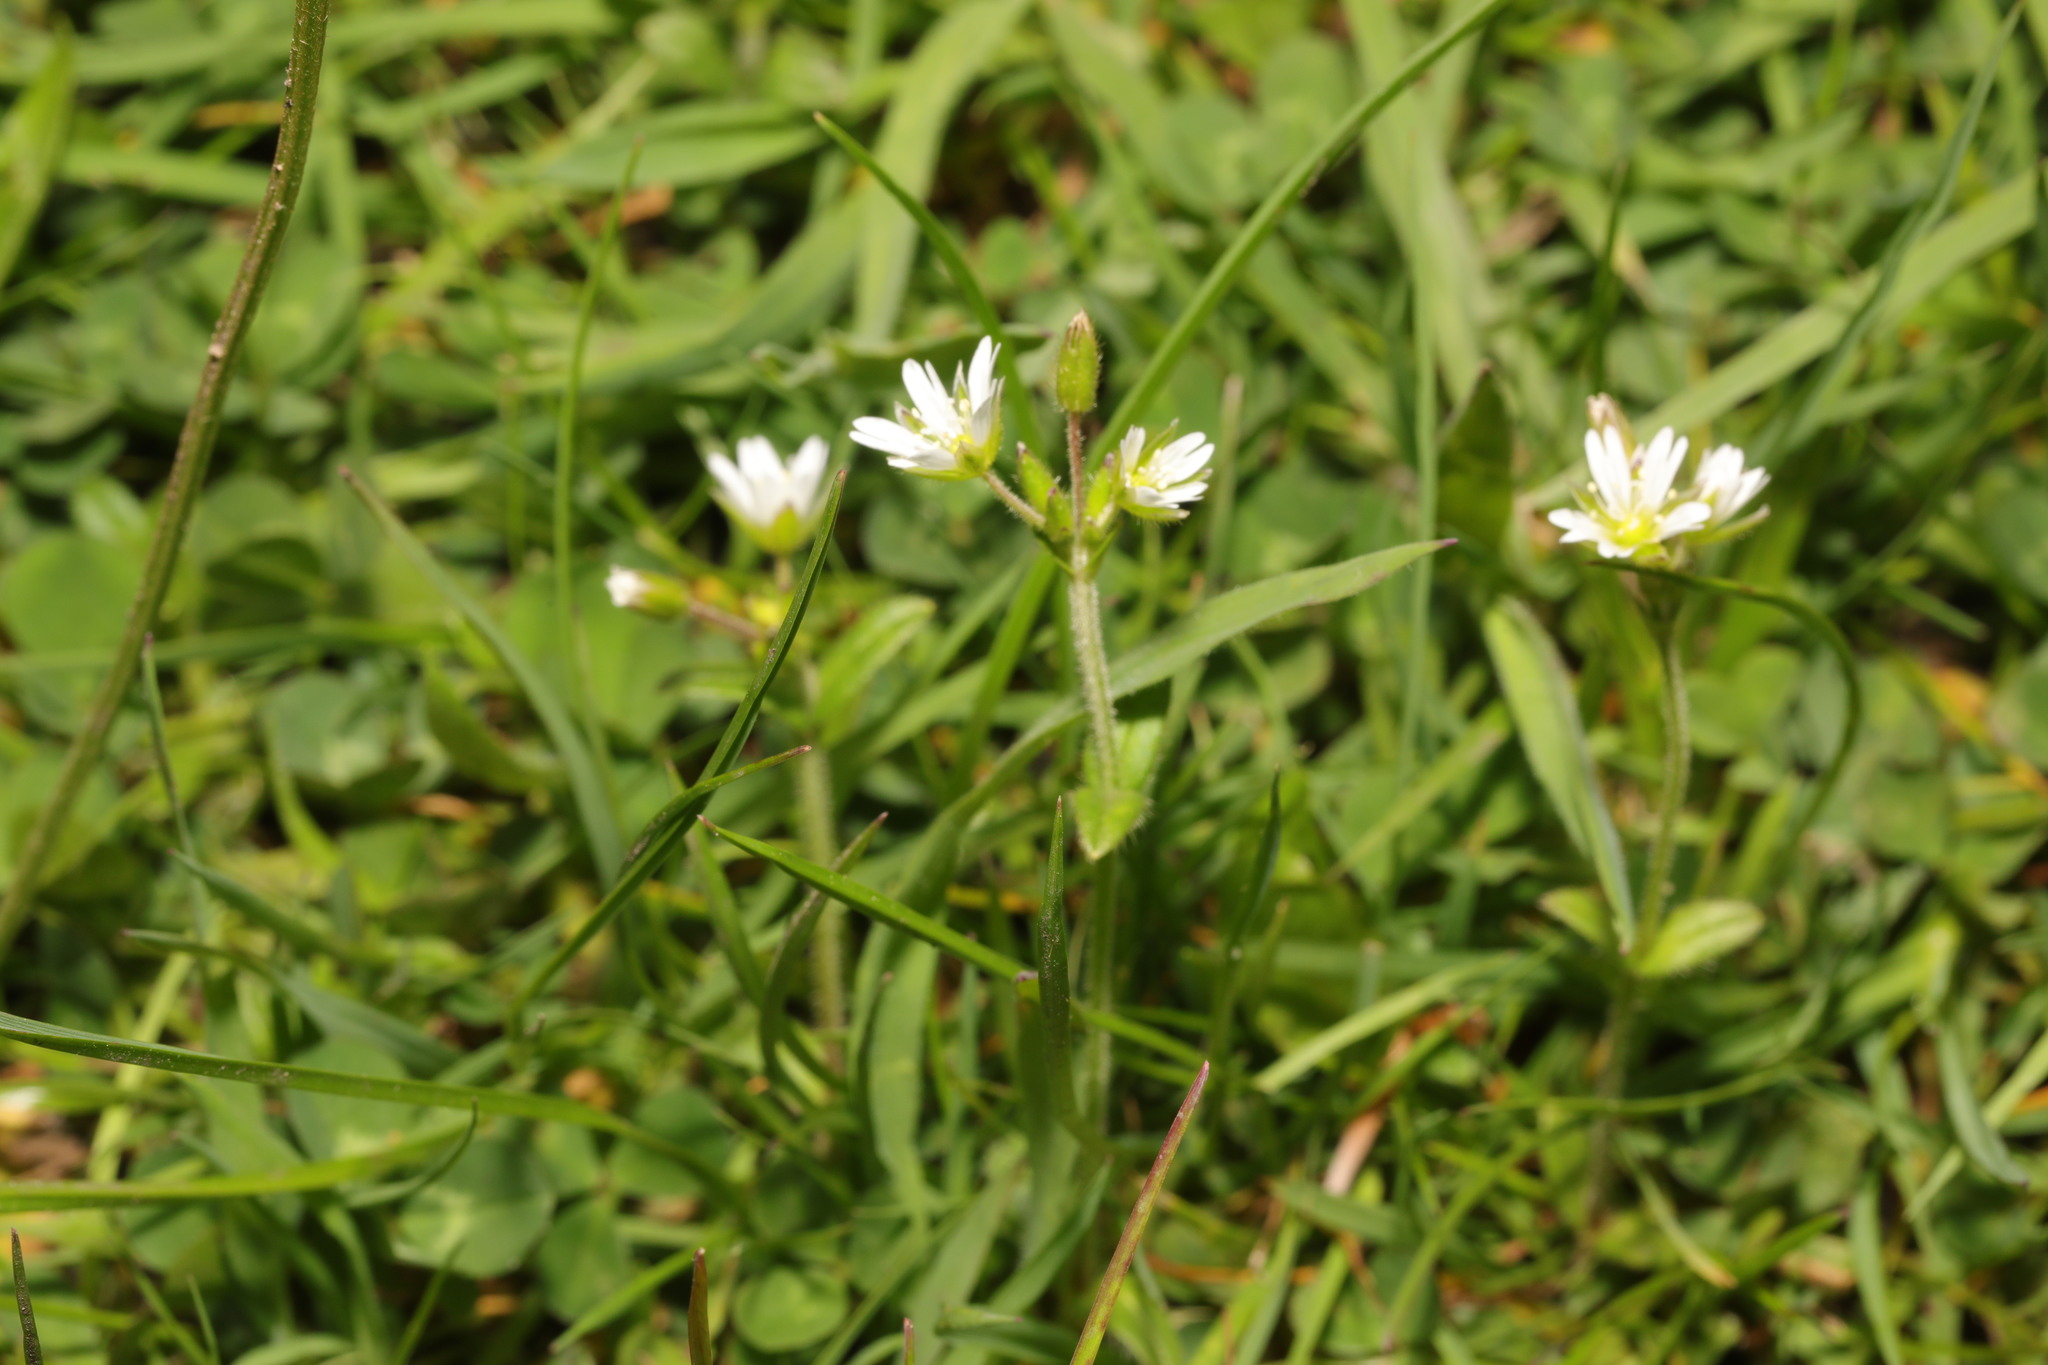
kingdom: Plantae
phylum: Tracheophyta
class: Magnoliopsida
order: Caryophyllales
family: Caryophyllaceae
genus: Cerastium
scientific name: Cerastium fontanum
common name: Common mouse-ear
